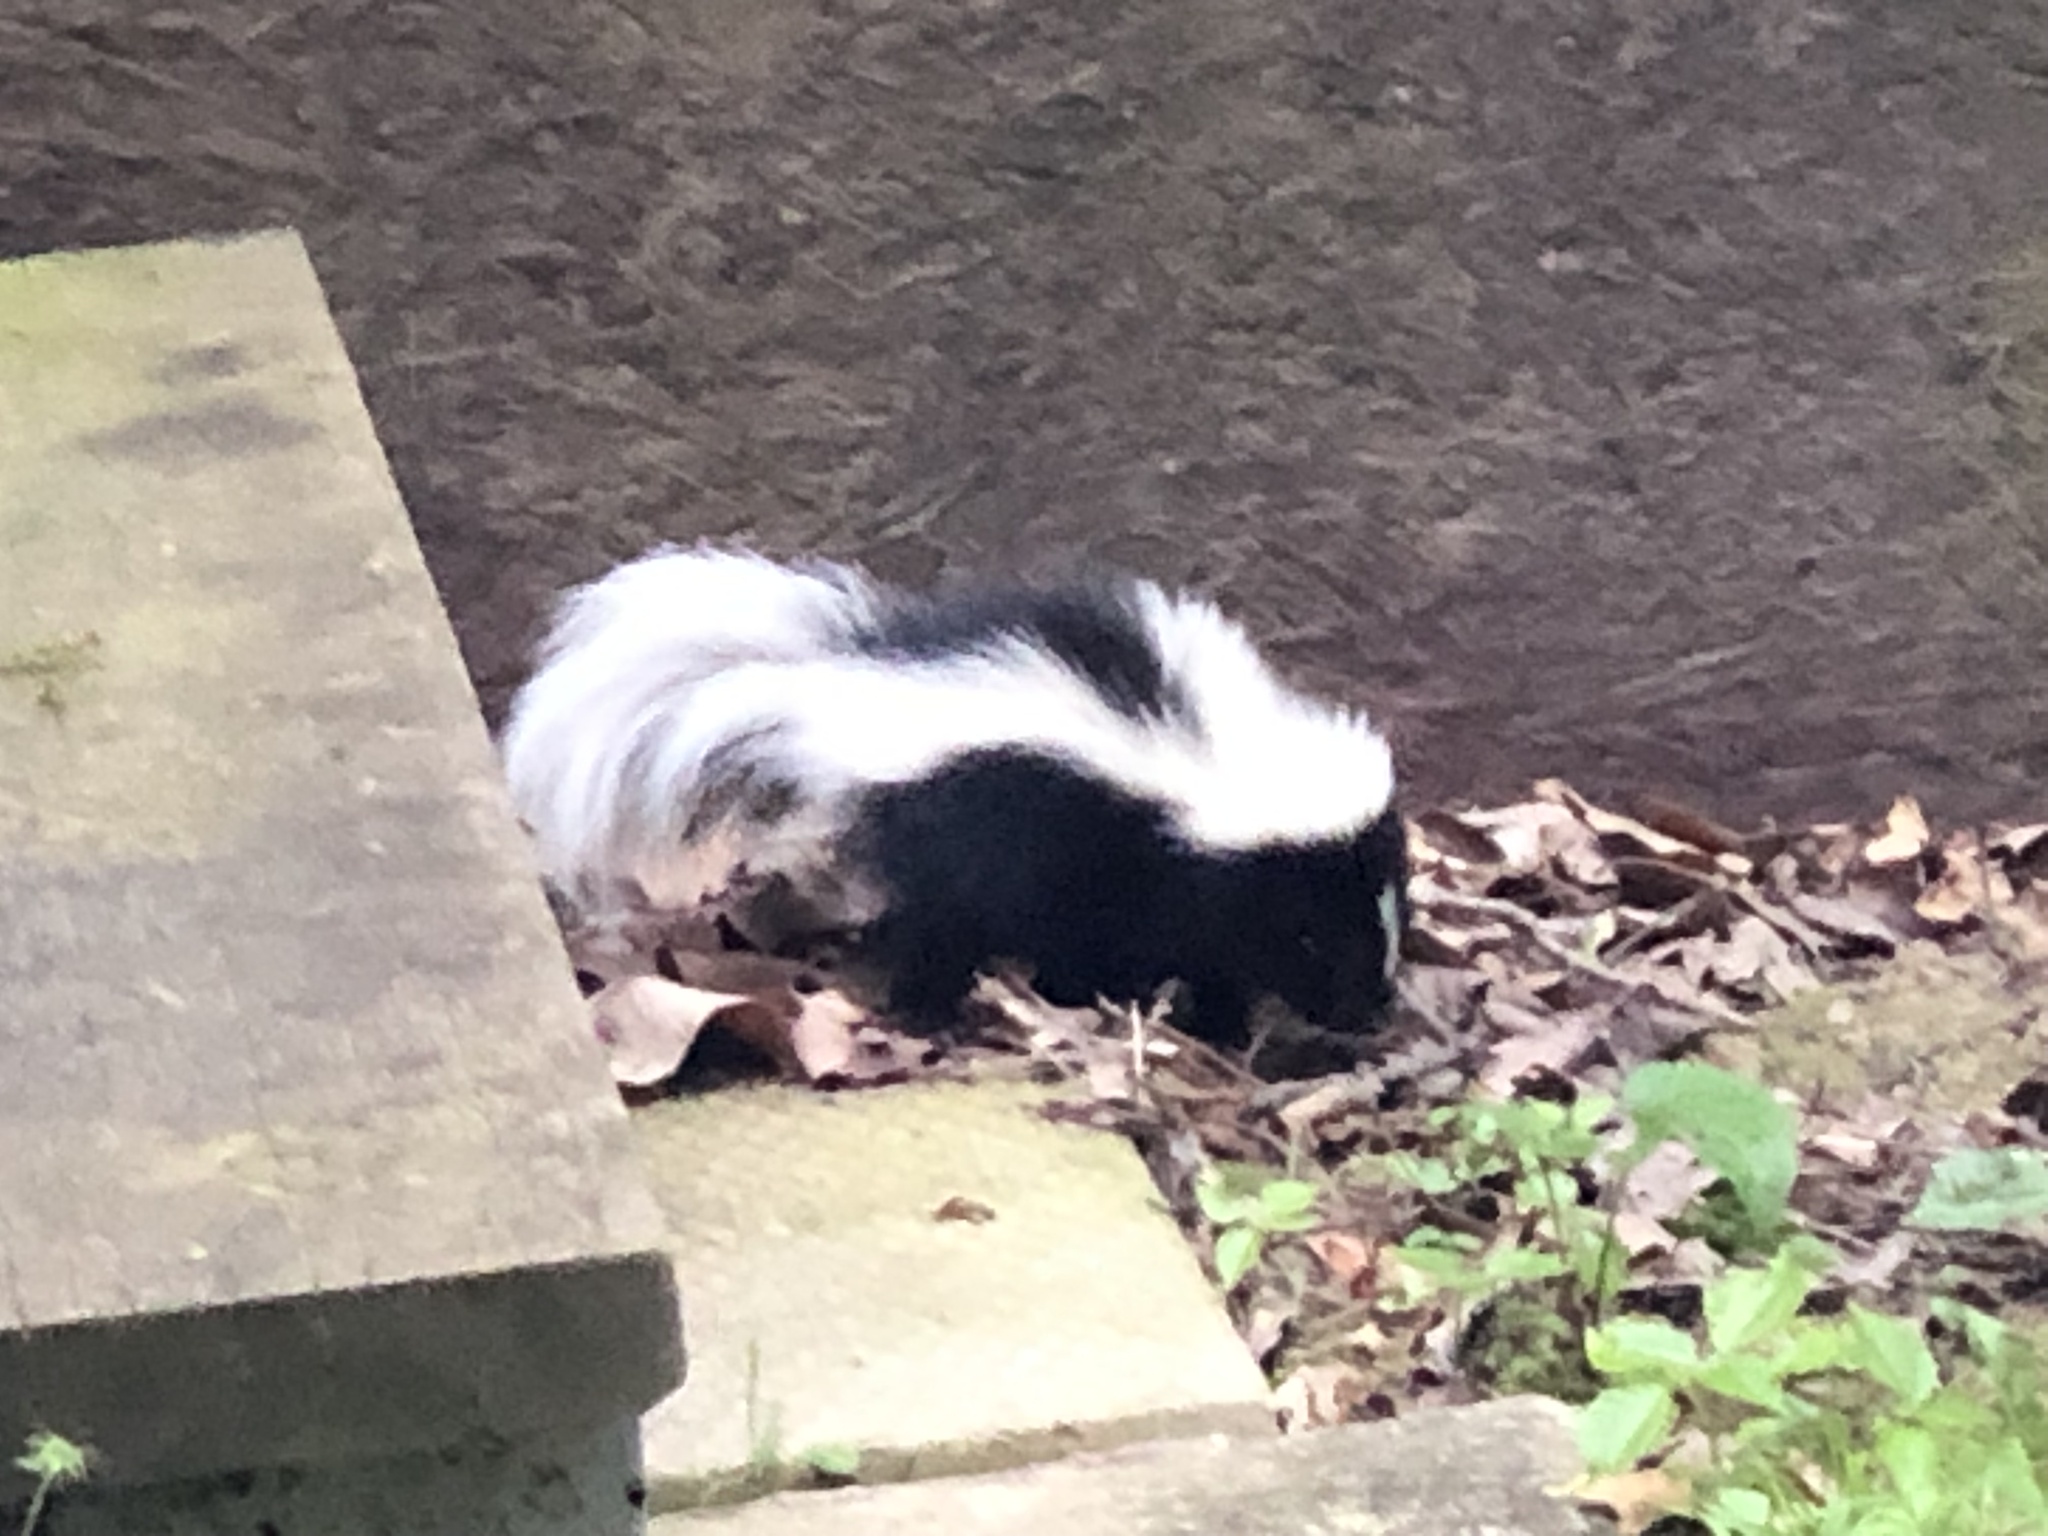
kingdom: Animalia
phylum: Chordata
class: Mammalia
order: Carnivora
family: Mephitidae
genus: Mephitis
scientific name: Mephitis mephitis
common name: Striped skunk
